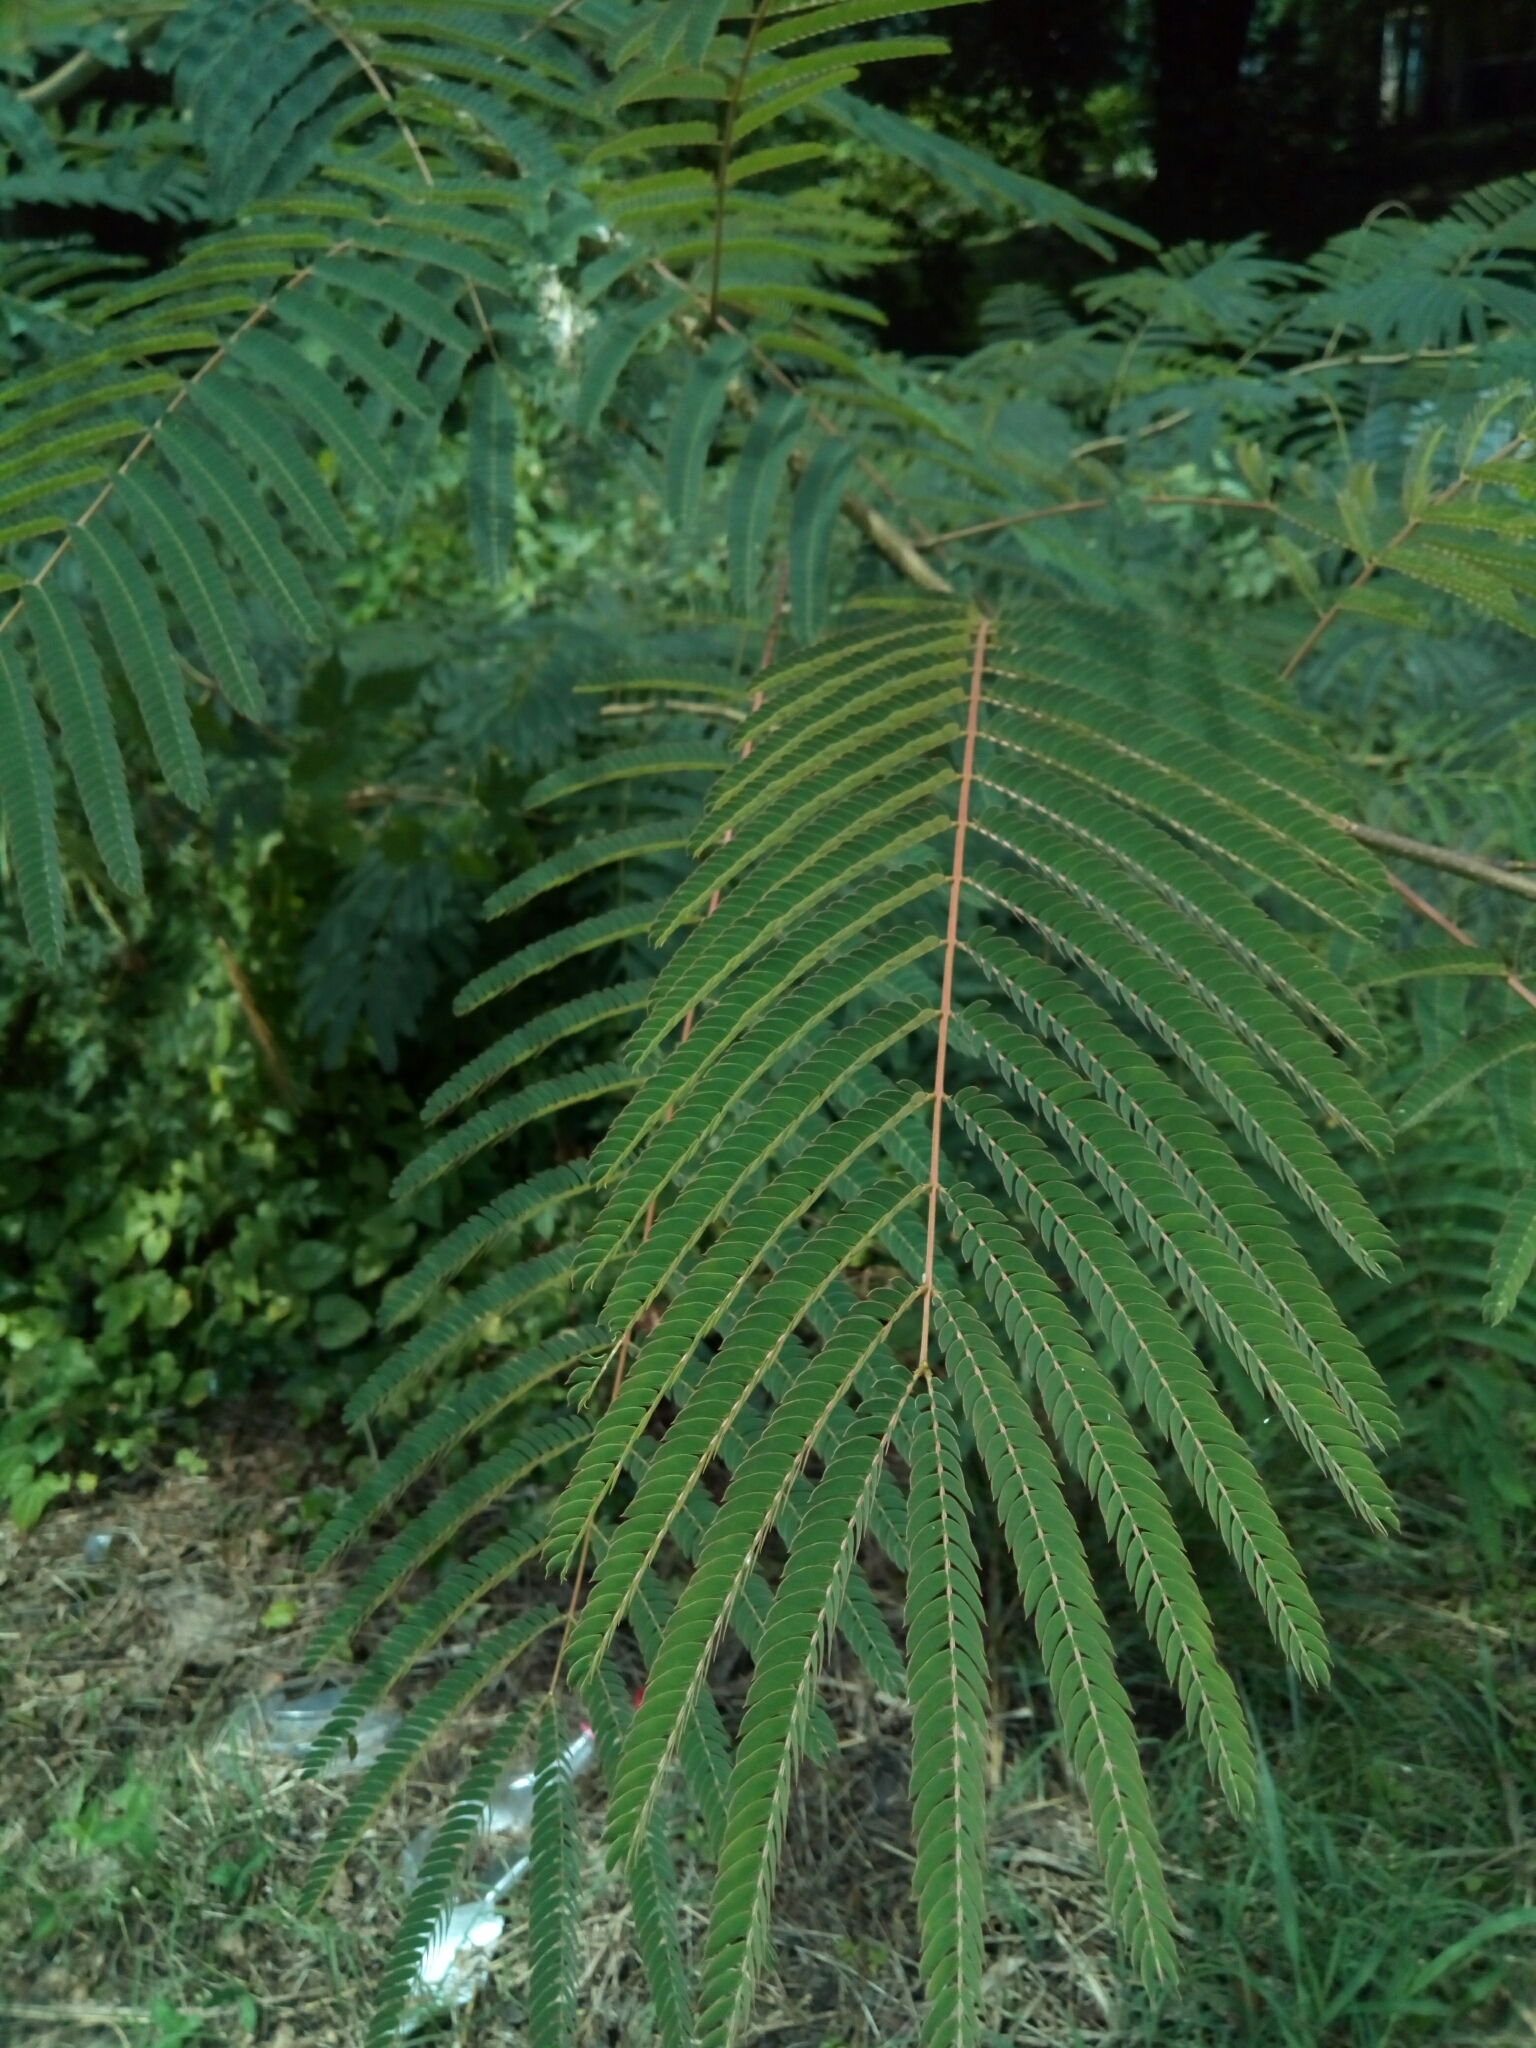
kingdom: Plantae
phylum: Tracheophyta
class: Magnoliopsida
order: Fabales
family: Fabaceae
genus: Albizia
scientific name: Albizia julibrissin
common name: Silktree
